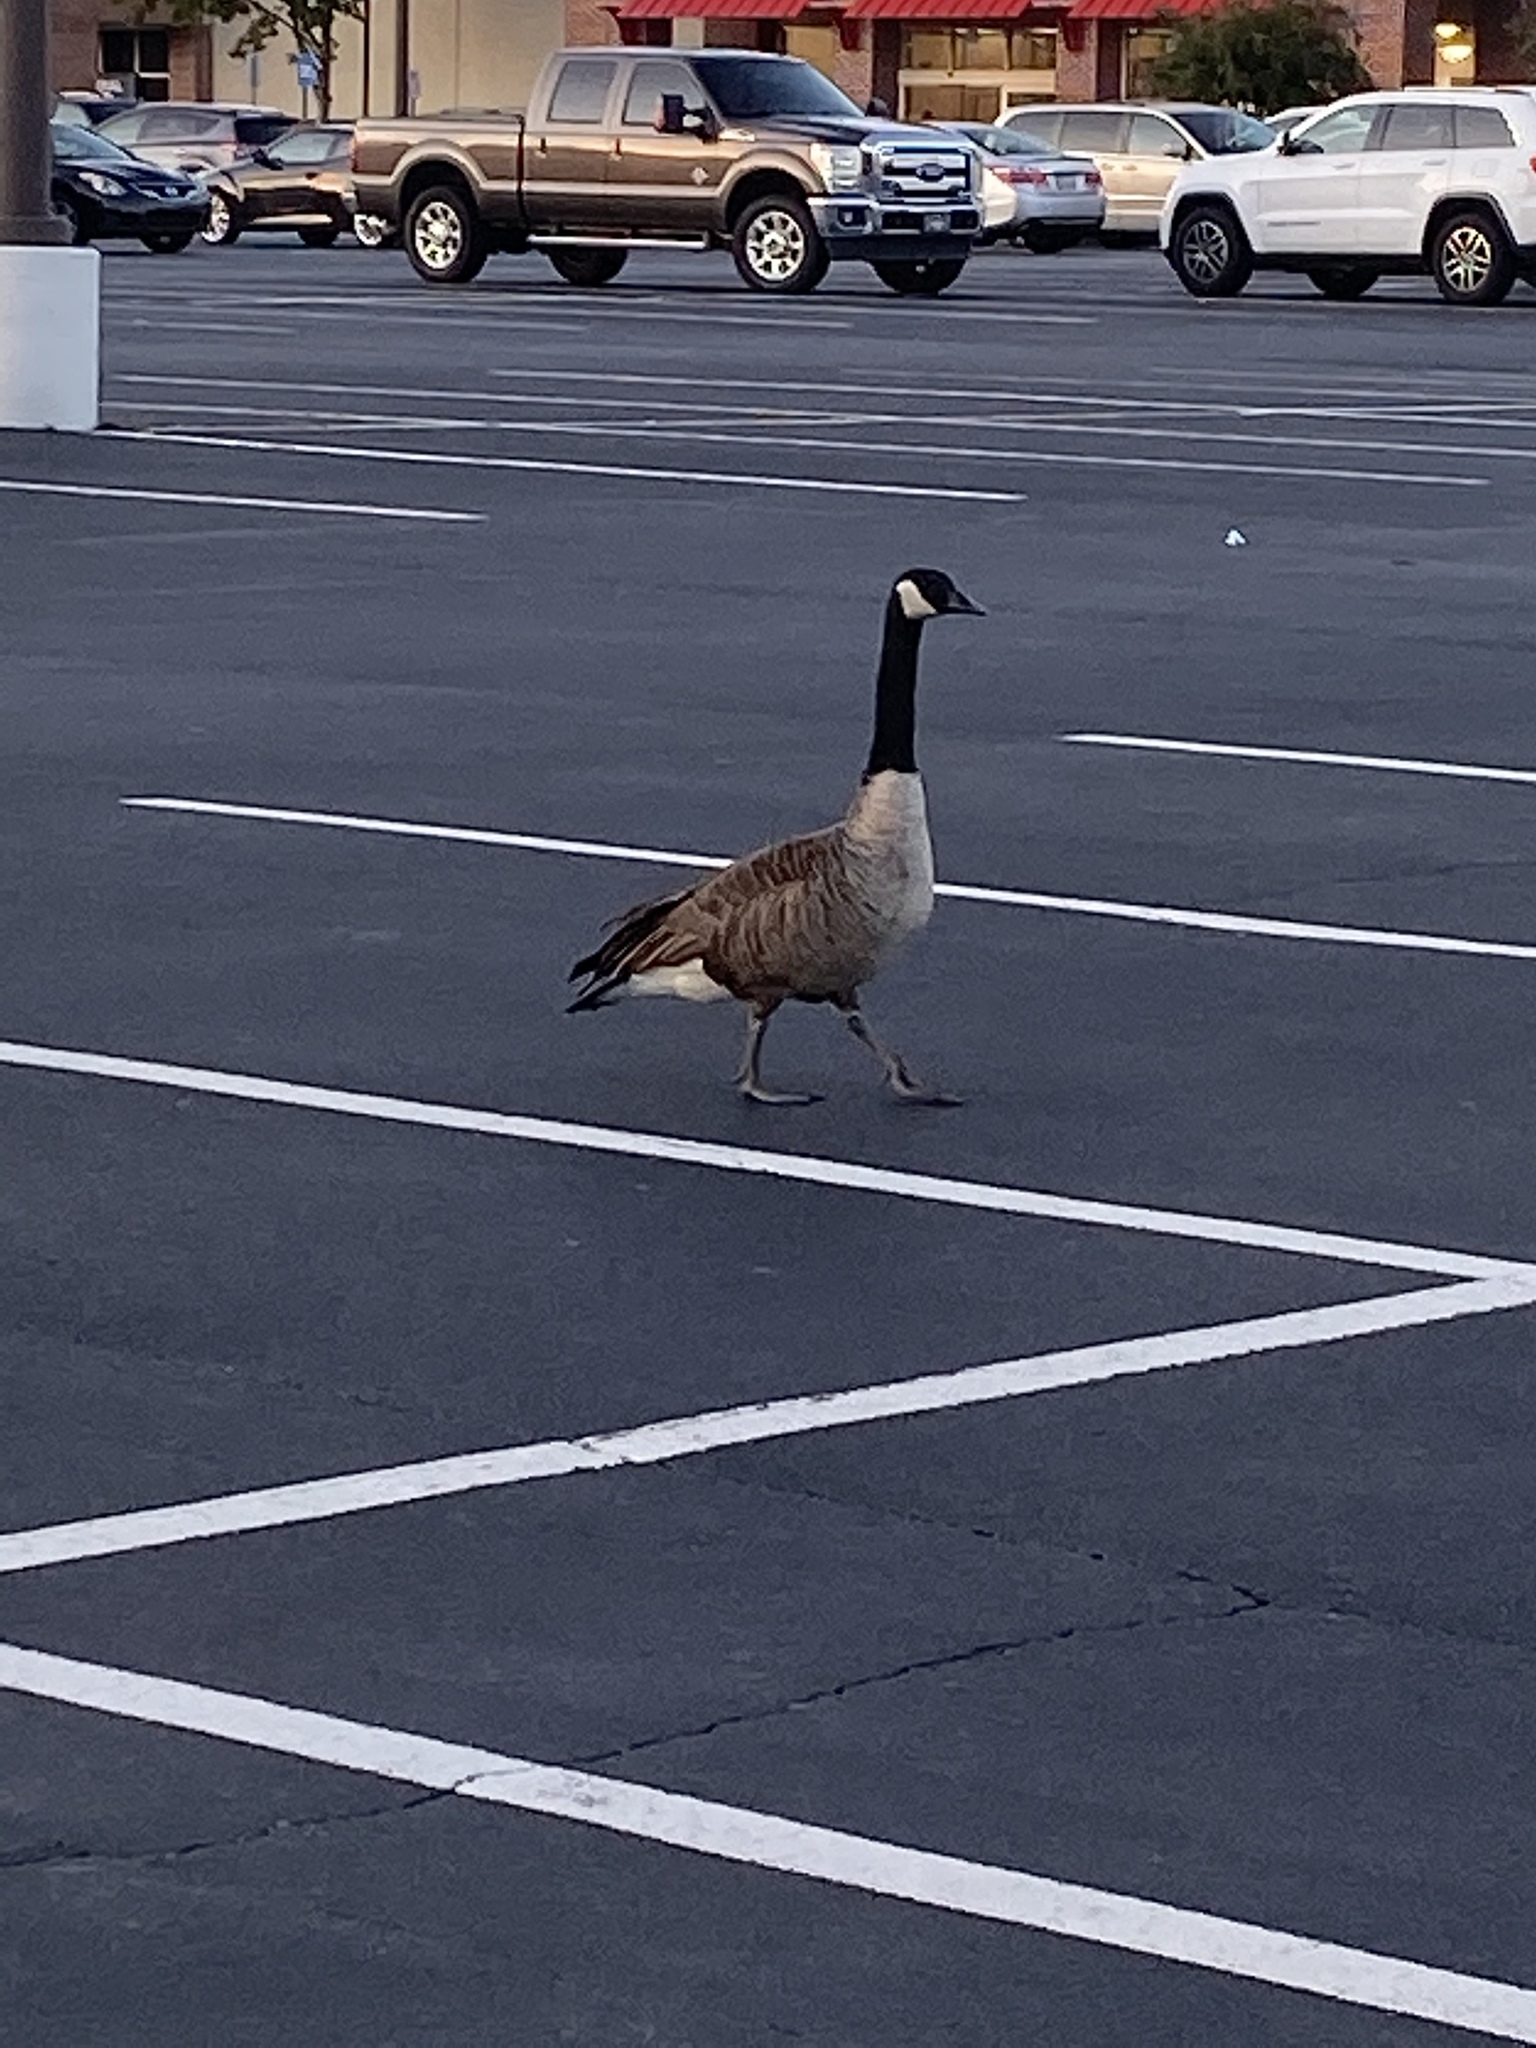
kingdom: Animalia
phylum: Chordata
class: Aves
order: Anseriformes
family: Anatidae
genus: Branta
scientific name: Branta canadensis
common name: Canada goose
